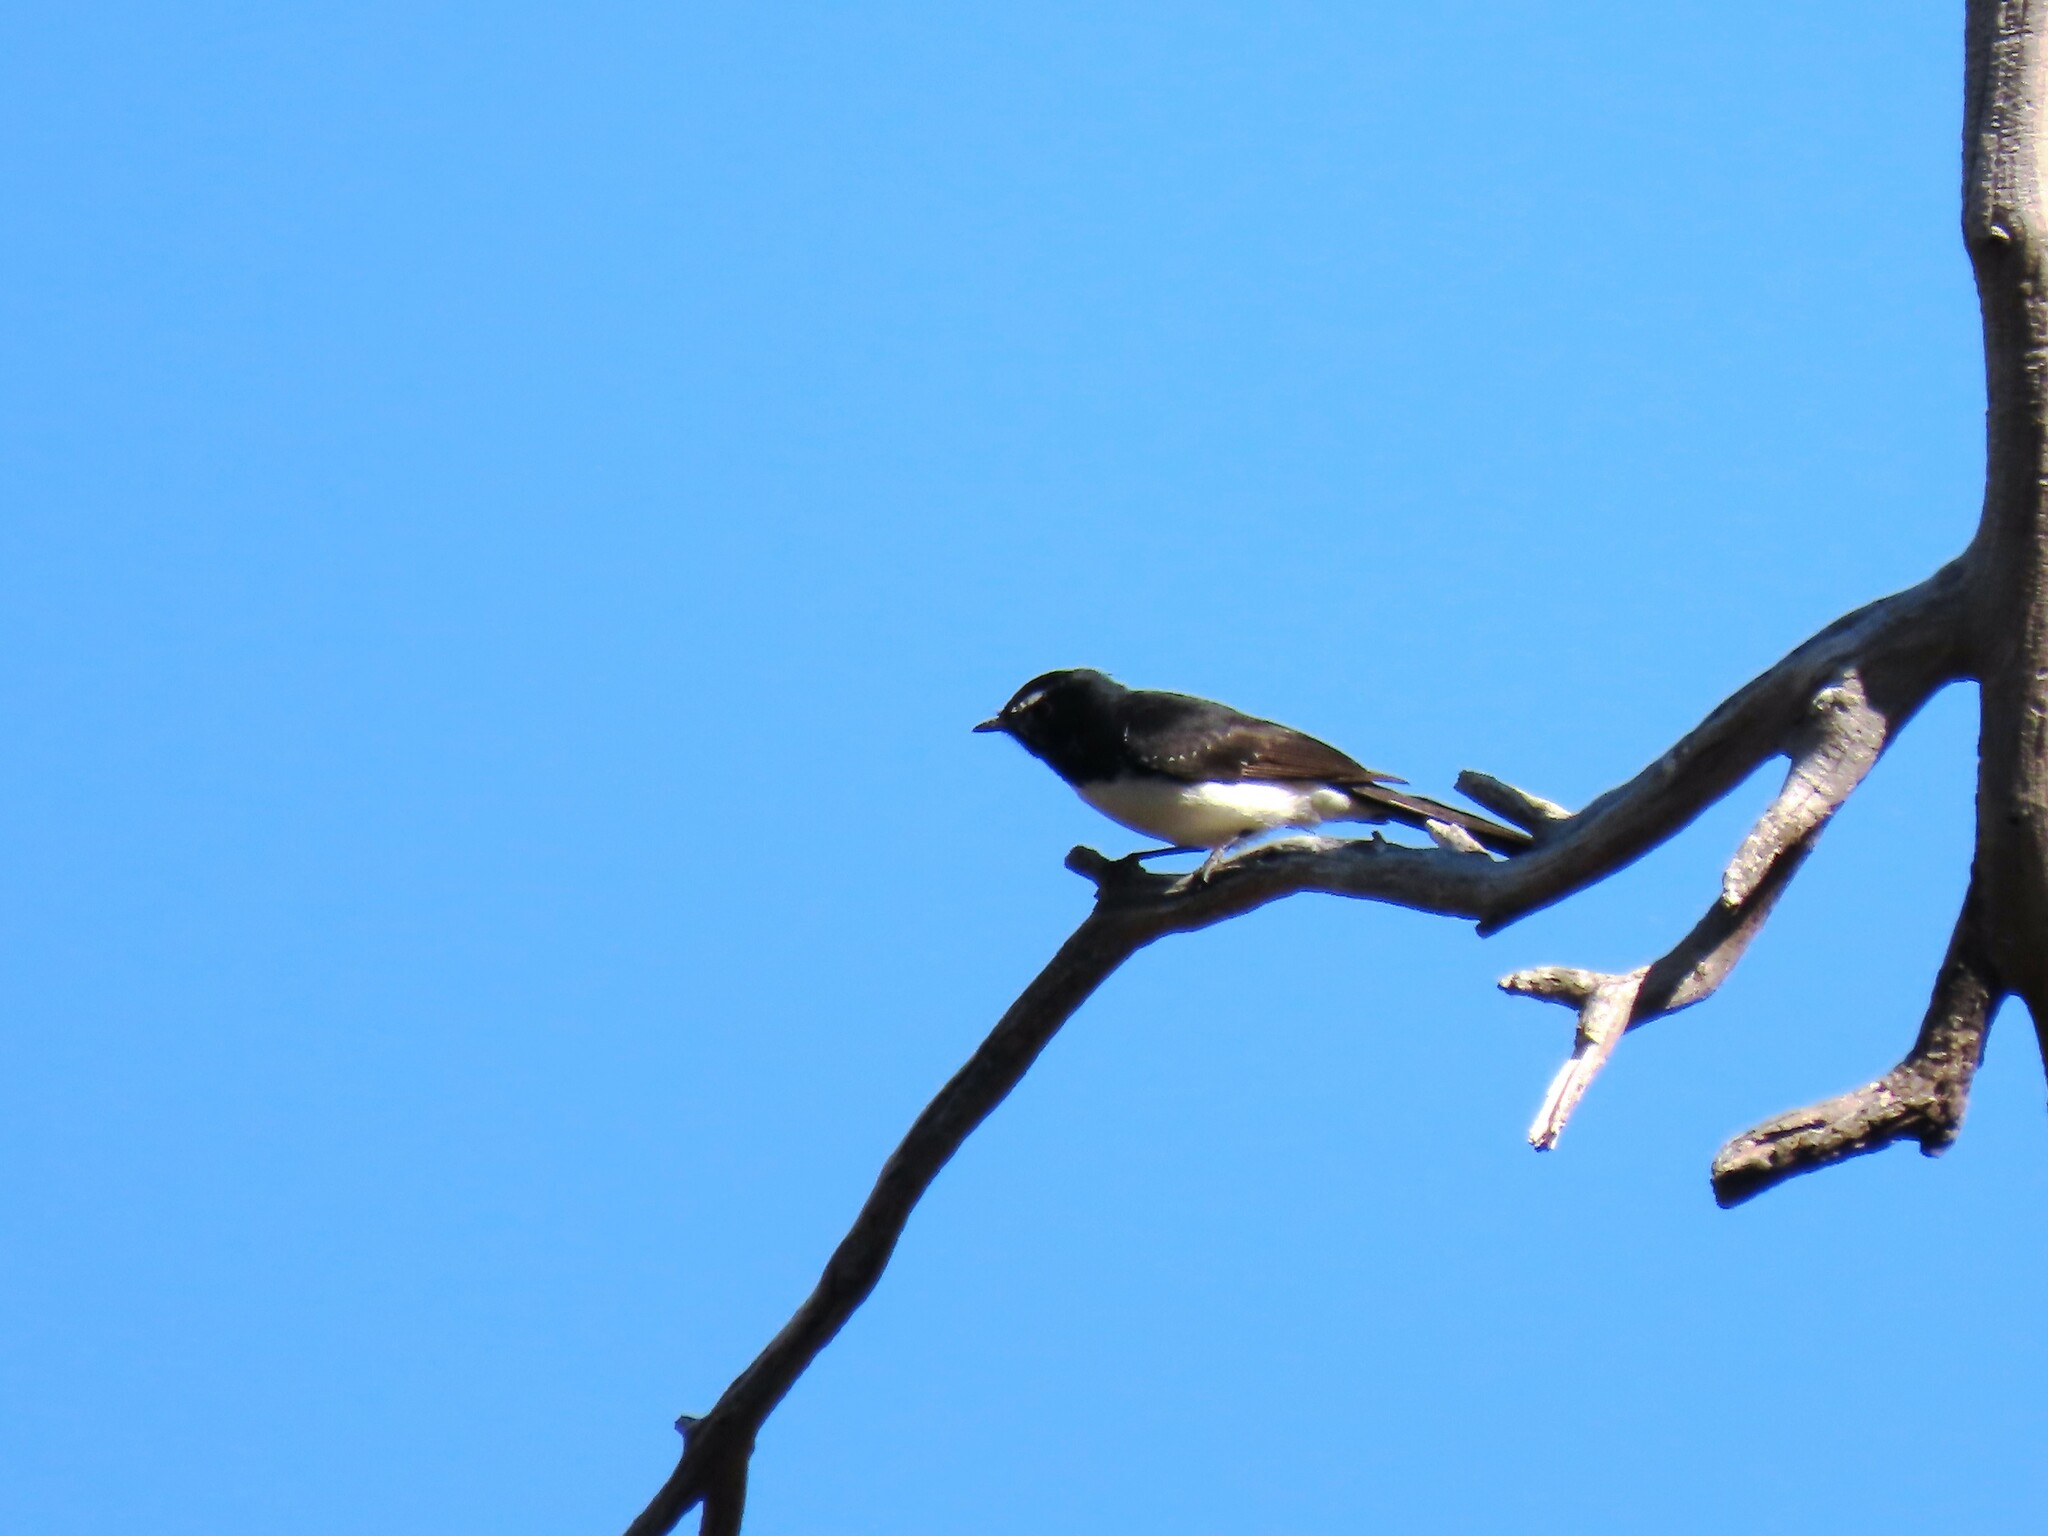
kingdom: Animalia
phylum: Chordata
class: Aves
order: Passeriformes
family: Rhipiduridae
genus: Rhipidura
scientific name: Rhipidura leucophrys
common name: Willie wagtail
